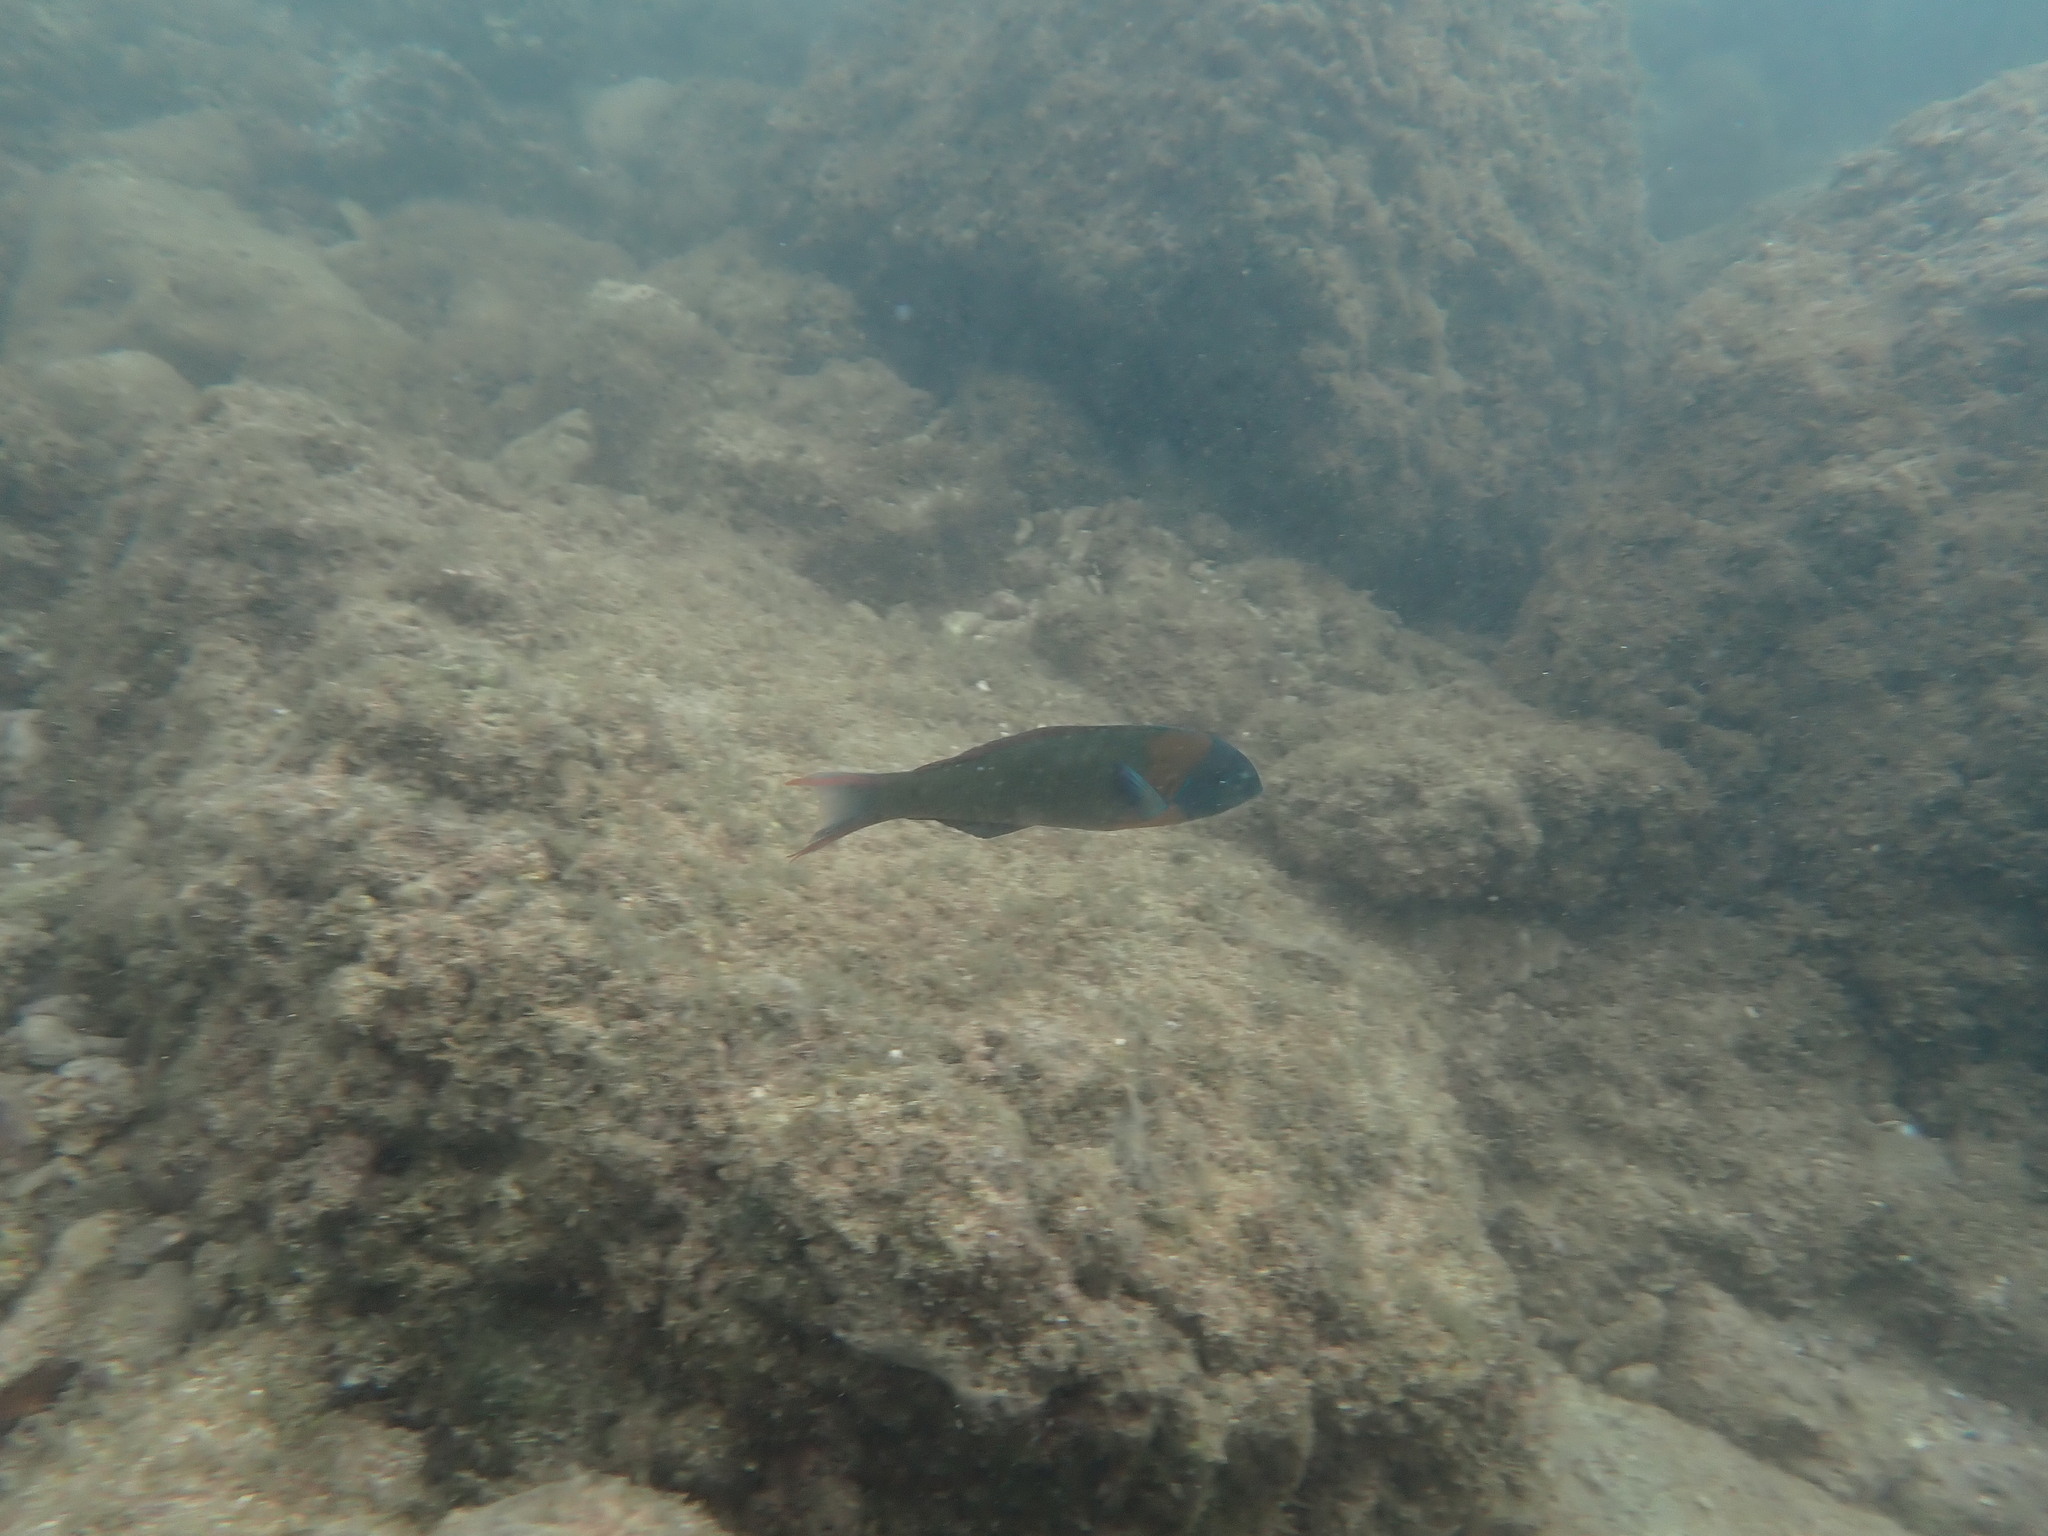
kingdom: Animalia
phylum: Chordata
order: Perciformes
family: Labridae
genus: Thalassoma
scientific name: Thalassoma duperrey
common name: Saddle wrasse
